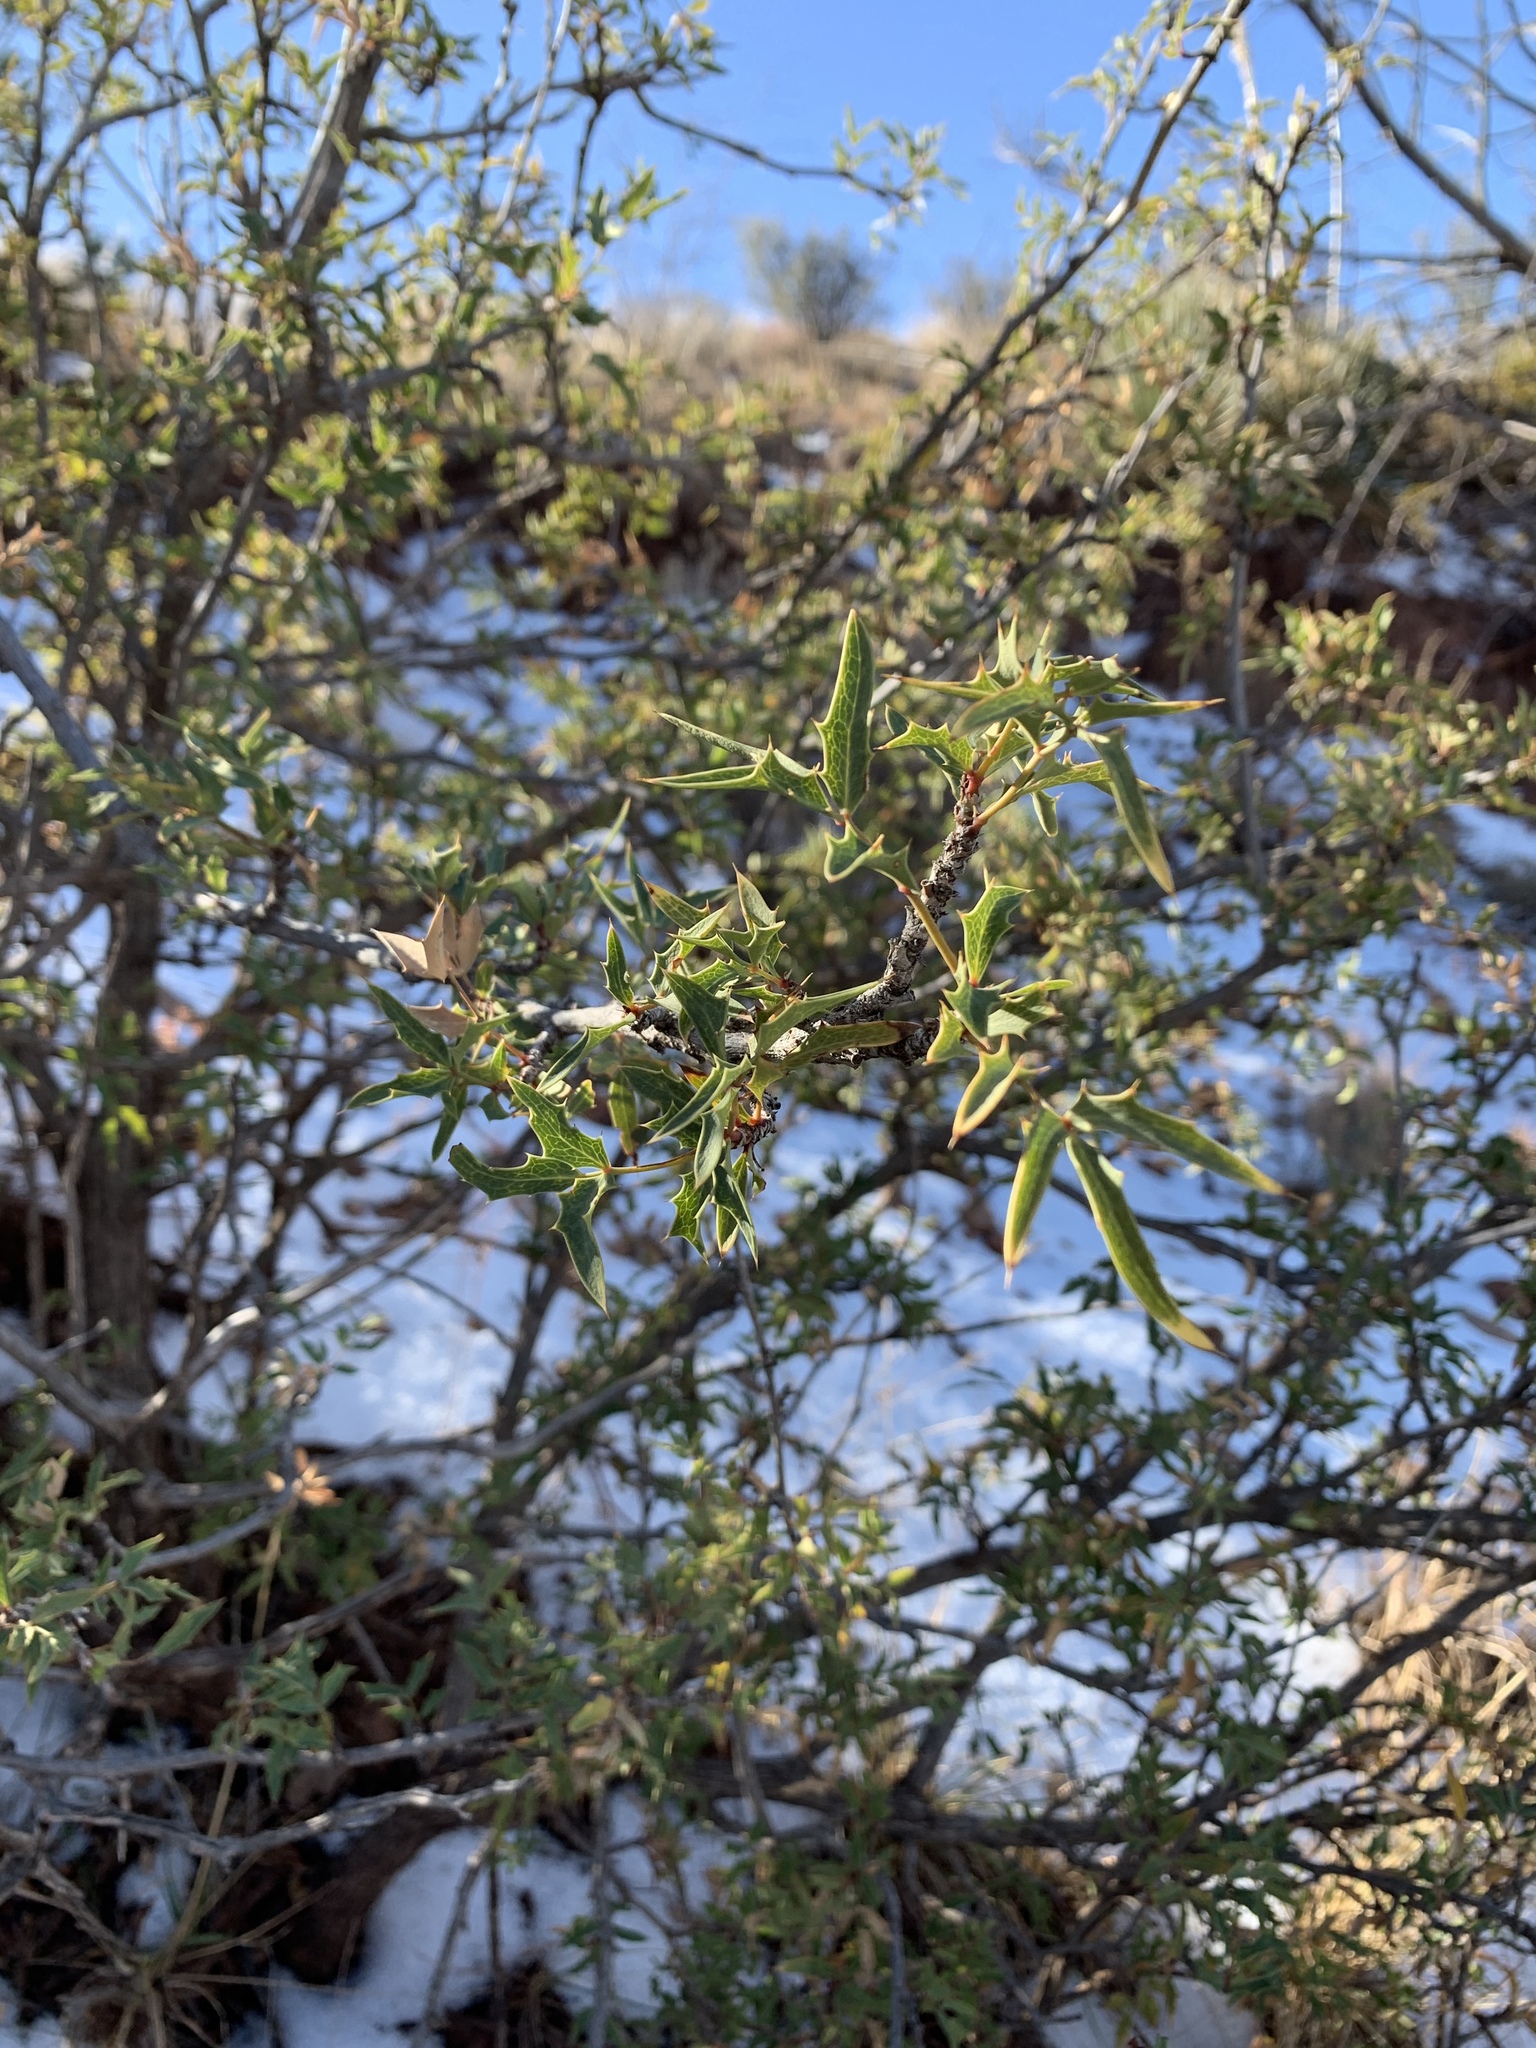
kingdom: Plantae
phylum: Tracheophyta
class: Magnoliopsida
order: Ranunculales
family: Berberidaceae
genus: Alloberberis
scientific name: Alloberberis haematocarpa
